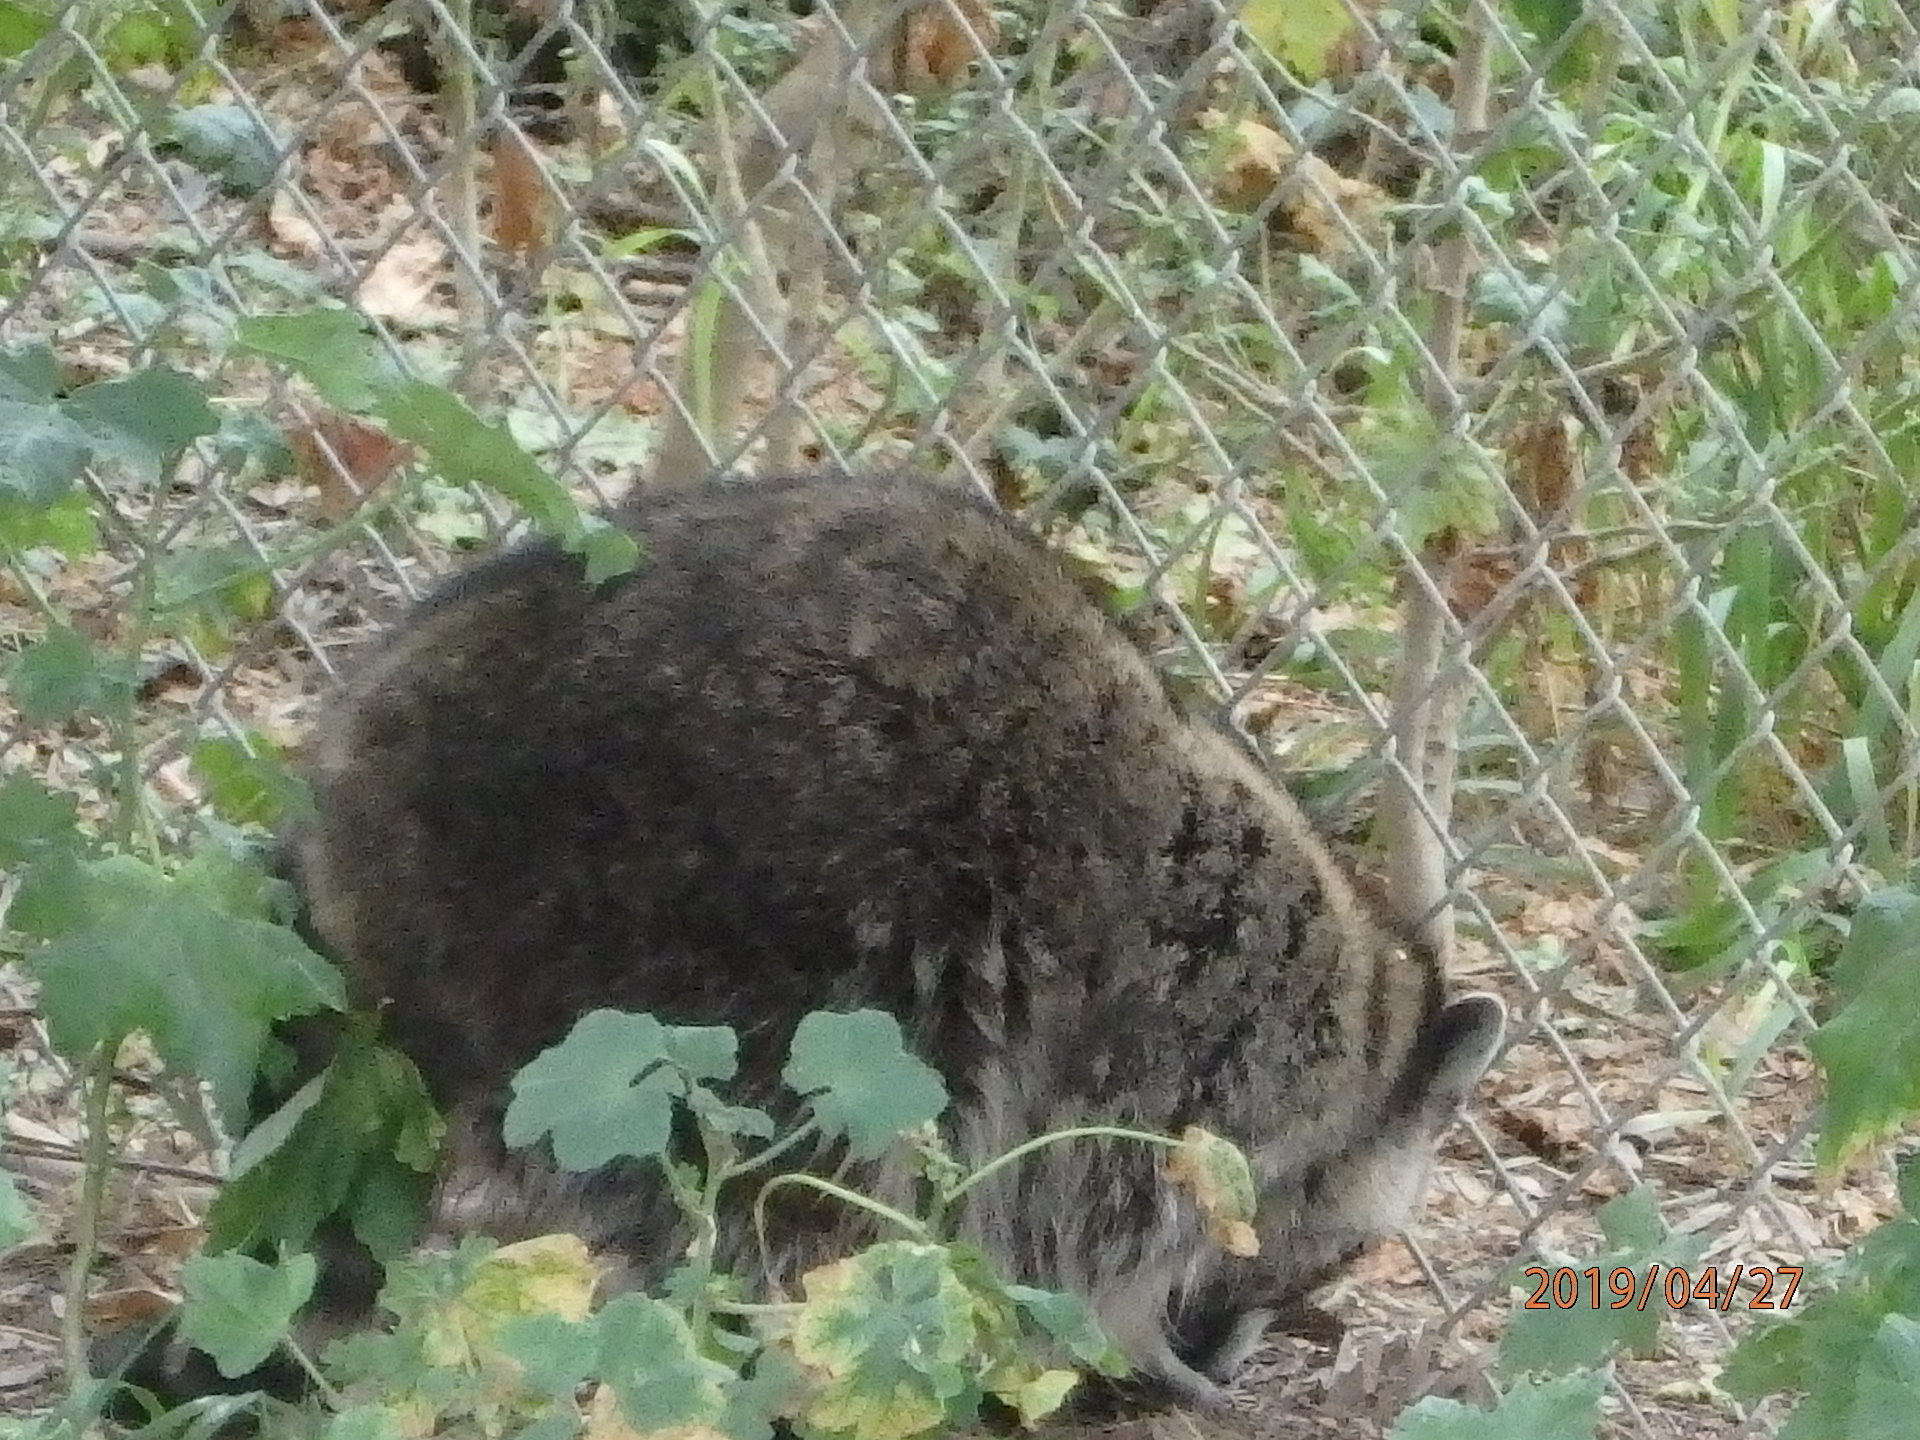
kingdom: Animalia
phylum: Chordata
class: Mammalia
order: Carnivora
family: Procyonidae
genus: Procyon
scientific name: Procyon lotor
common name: Raccoon
